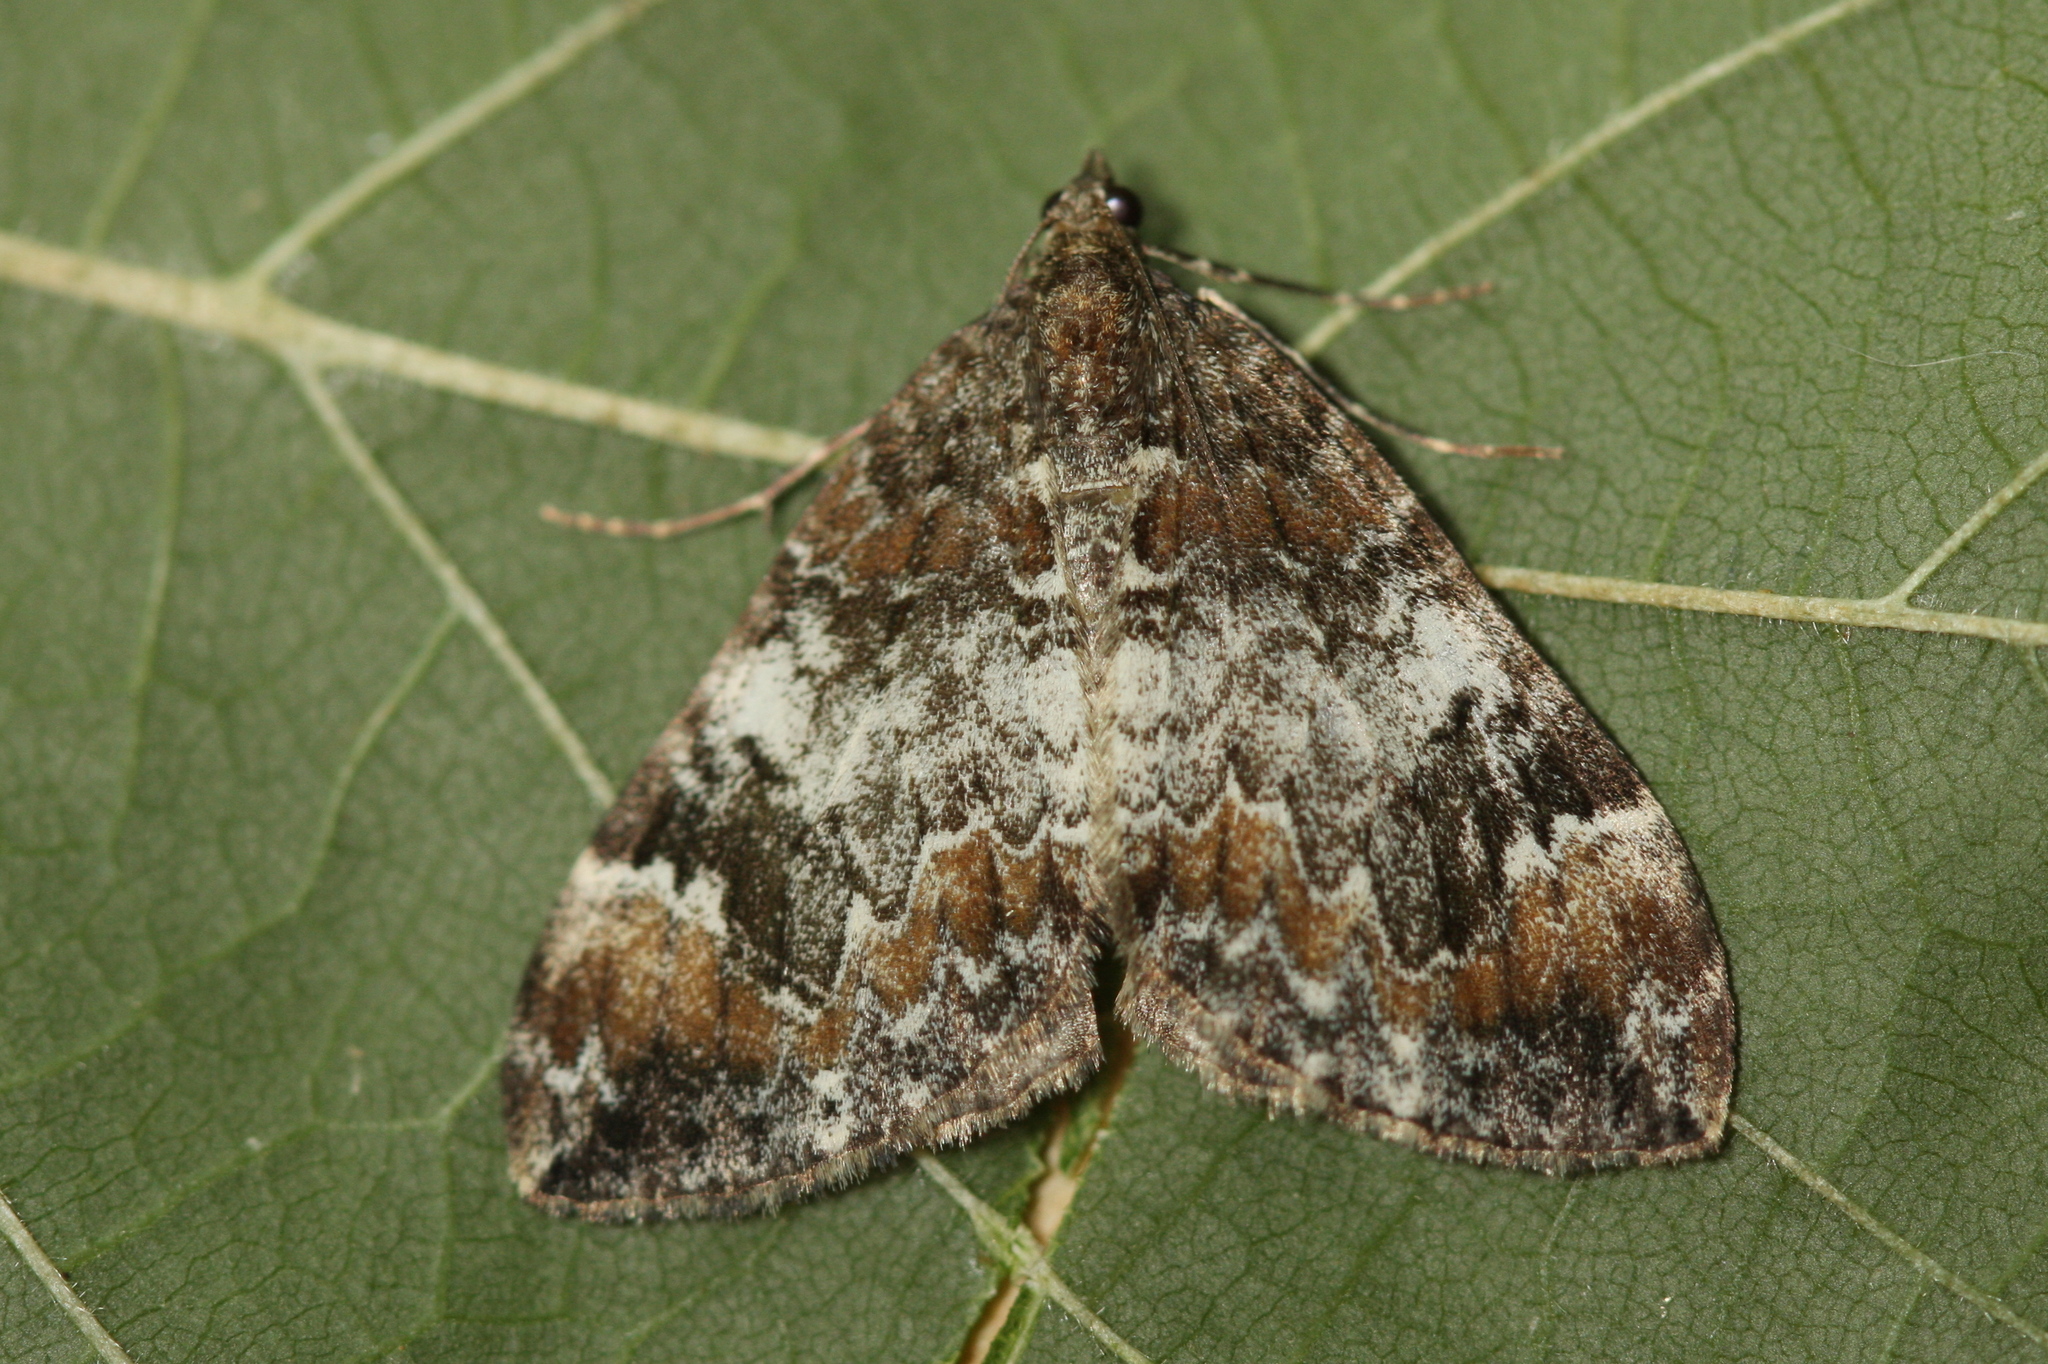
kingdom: Animalia
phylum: Arthropoda
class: Insecta
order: Lepidoptera
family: Geometridae
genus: Dysstroma
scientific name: Dysstroma truncata
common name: Common marbled carpet
